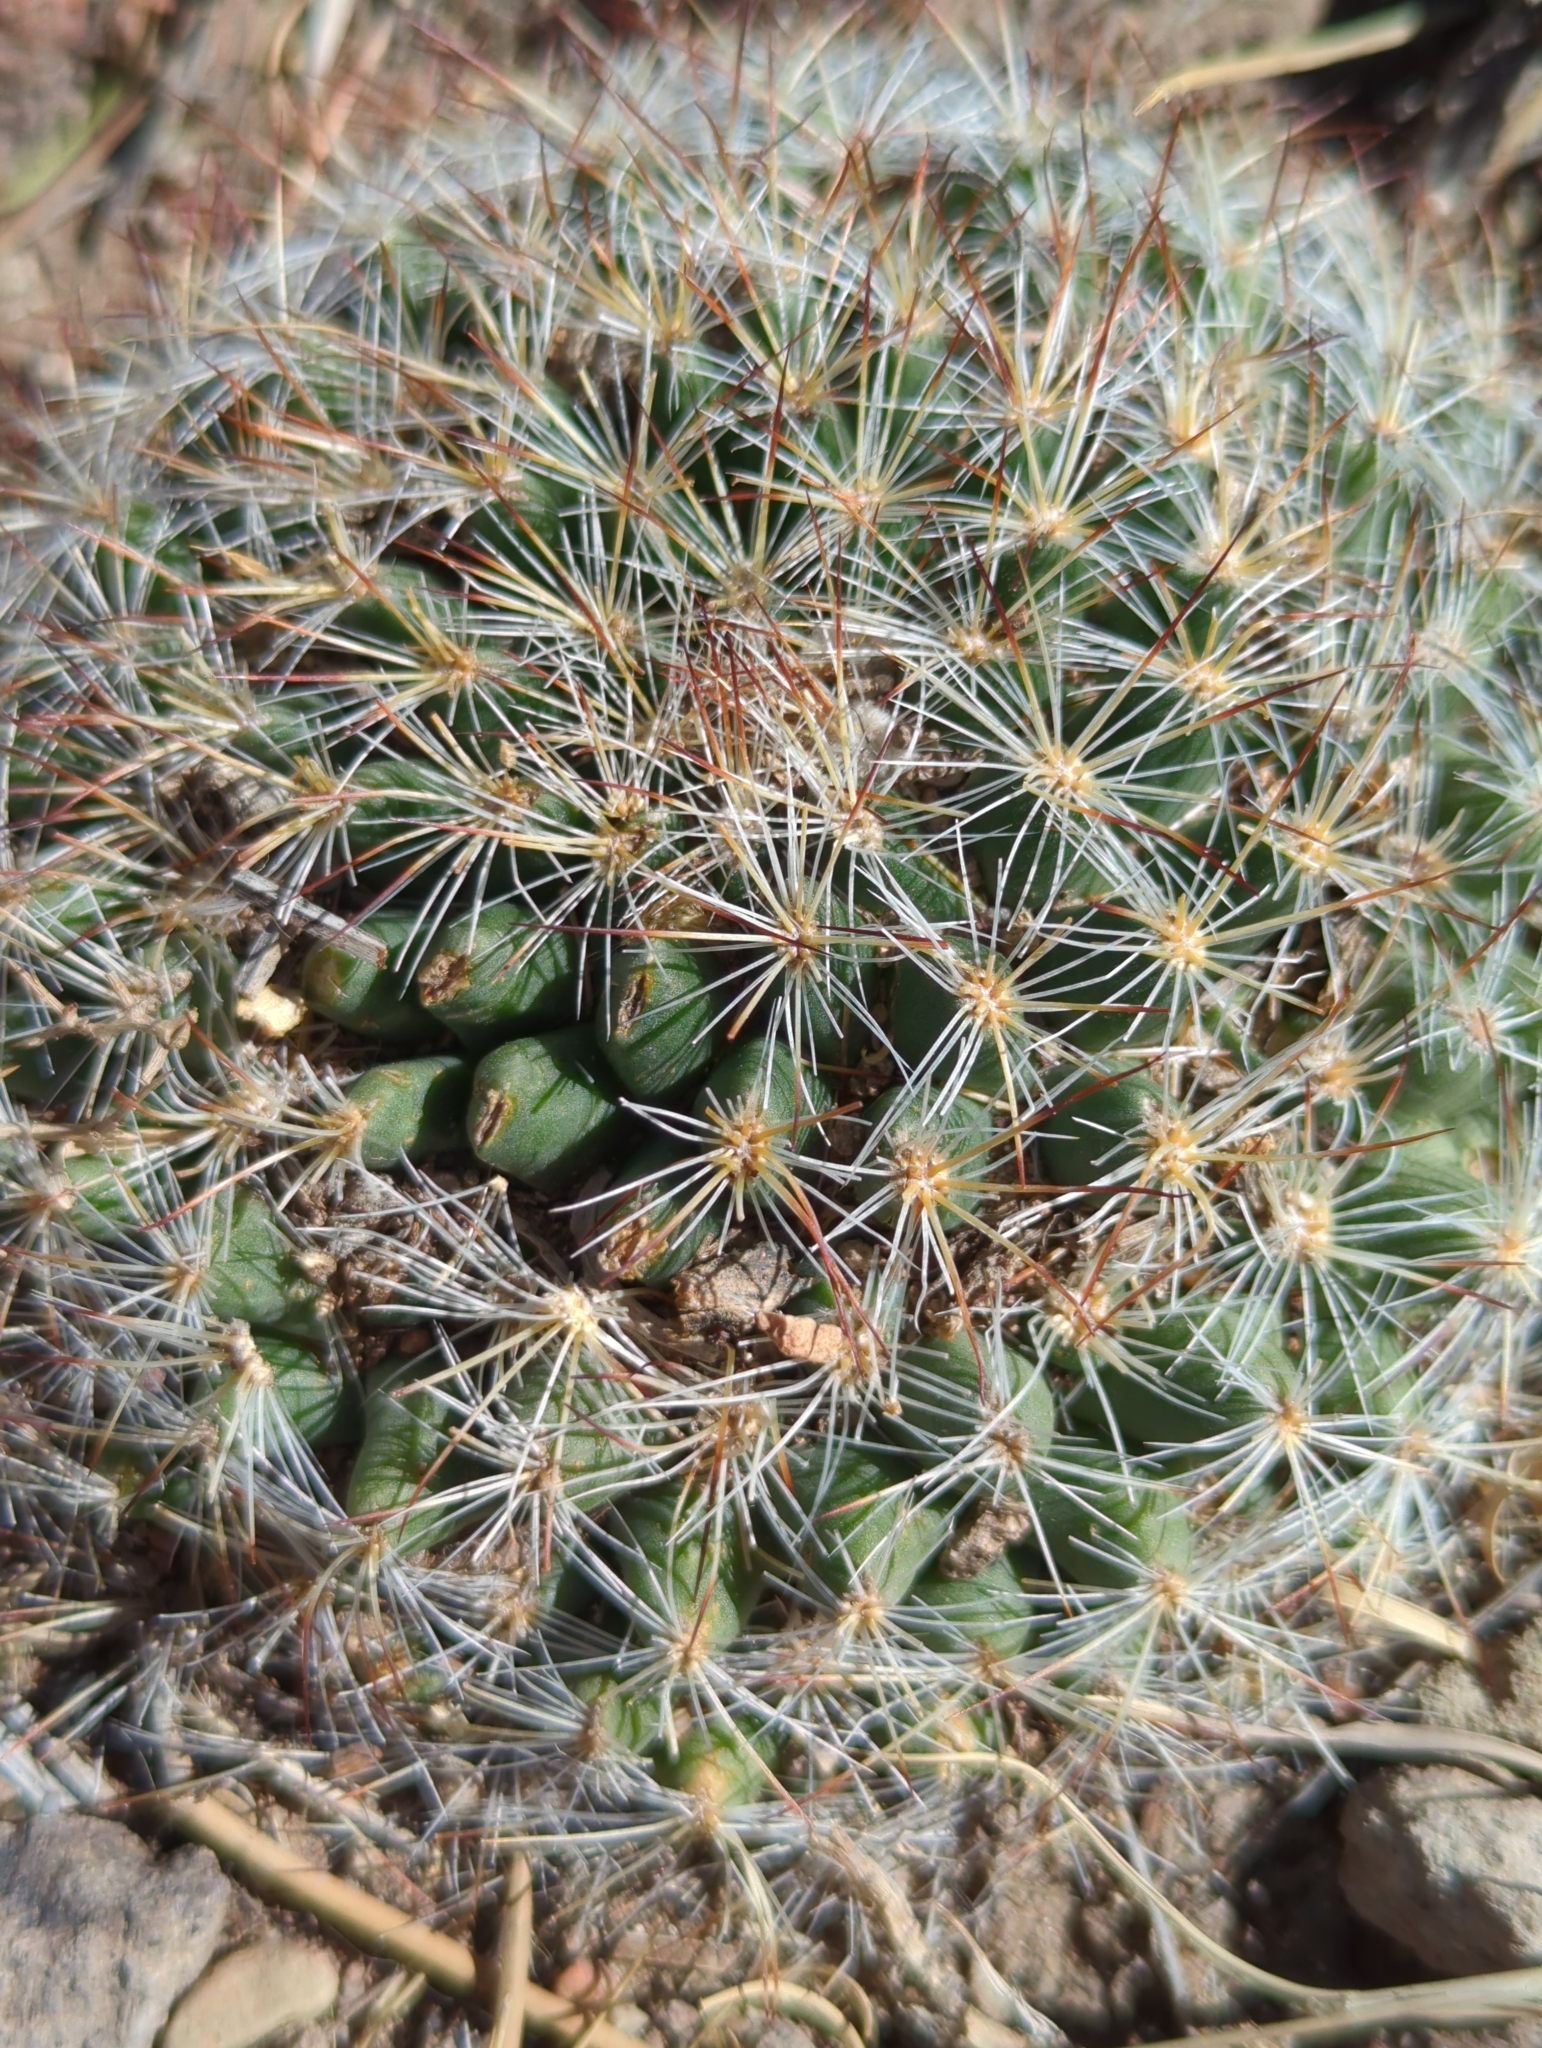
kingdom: Plantae
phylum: Tracheophyta
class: Magnoliopsida
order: Caryophyllales
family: Cactaceae
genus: Pediocactus
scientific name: Pediocactus simpsonii
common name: Simpson's hedgehog cactus
